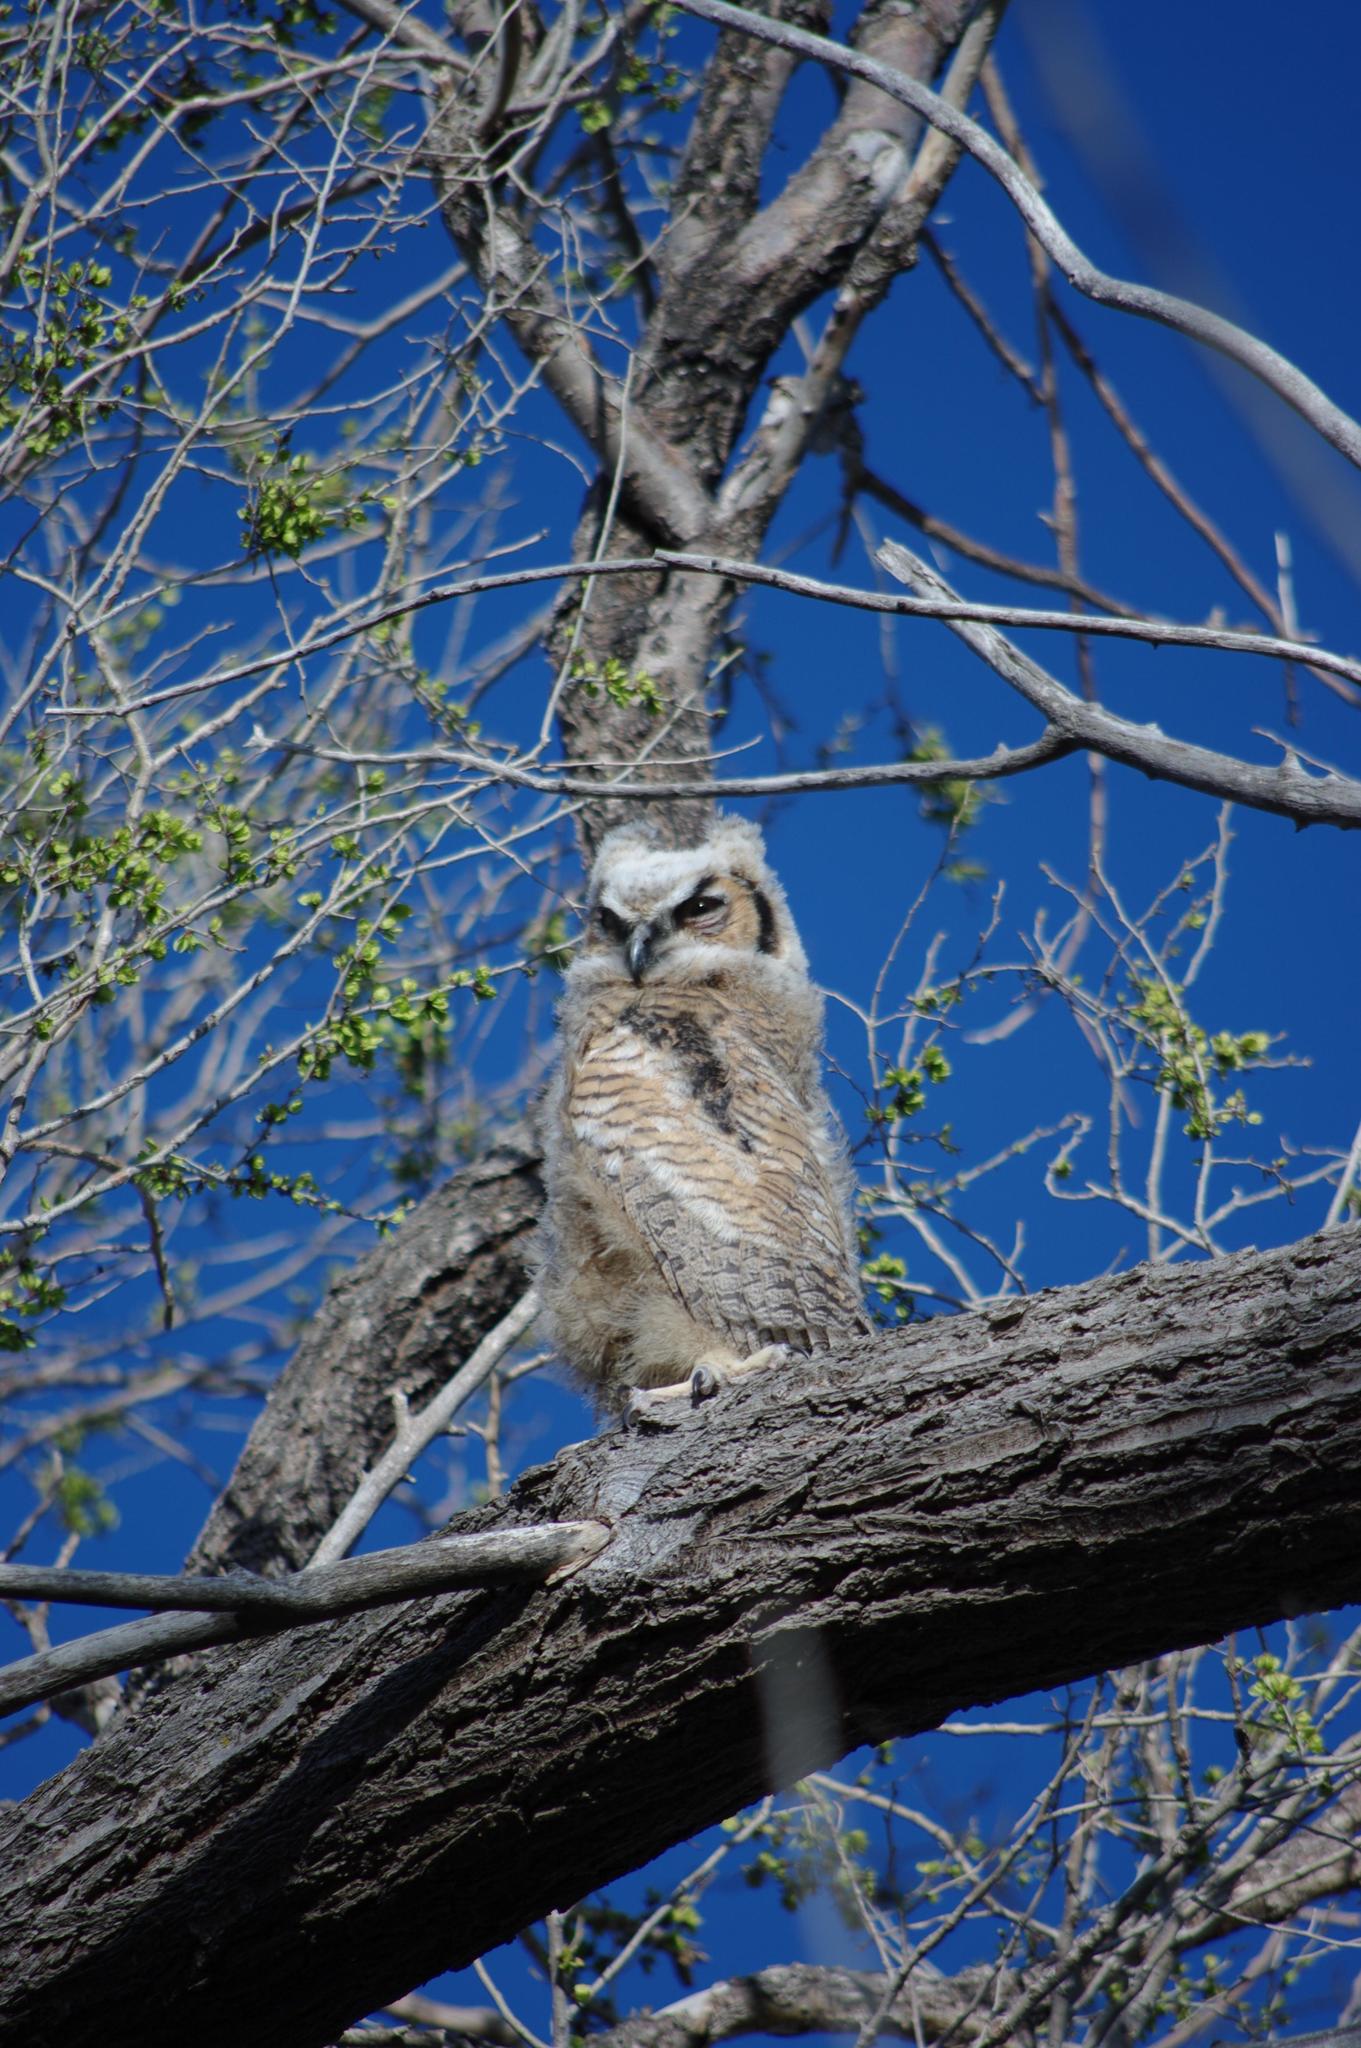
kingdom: Animalia
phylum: Chordata
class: Aves
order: Strigiformes
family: Strigidae
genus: Bubo
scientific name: Bubo virginianus
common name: Great horned owl
